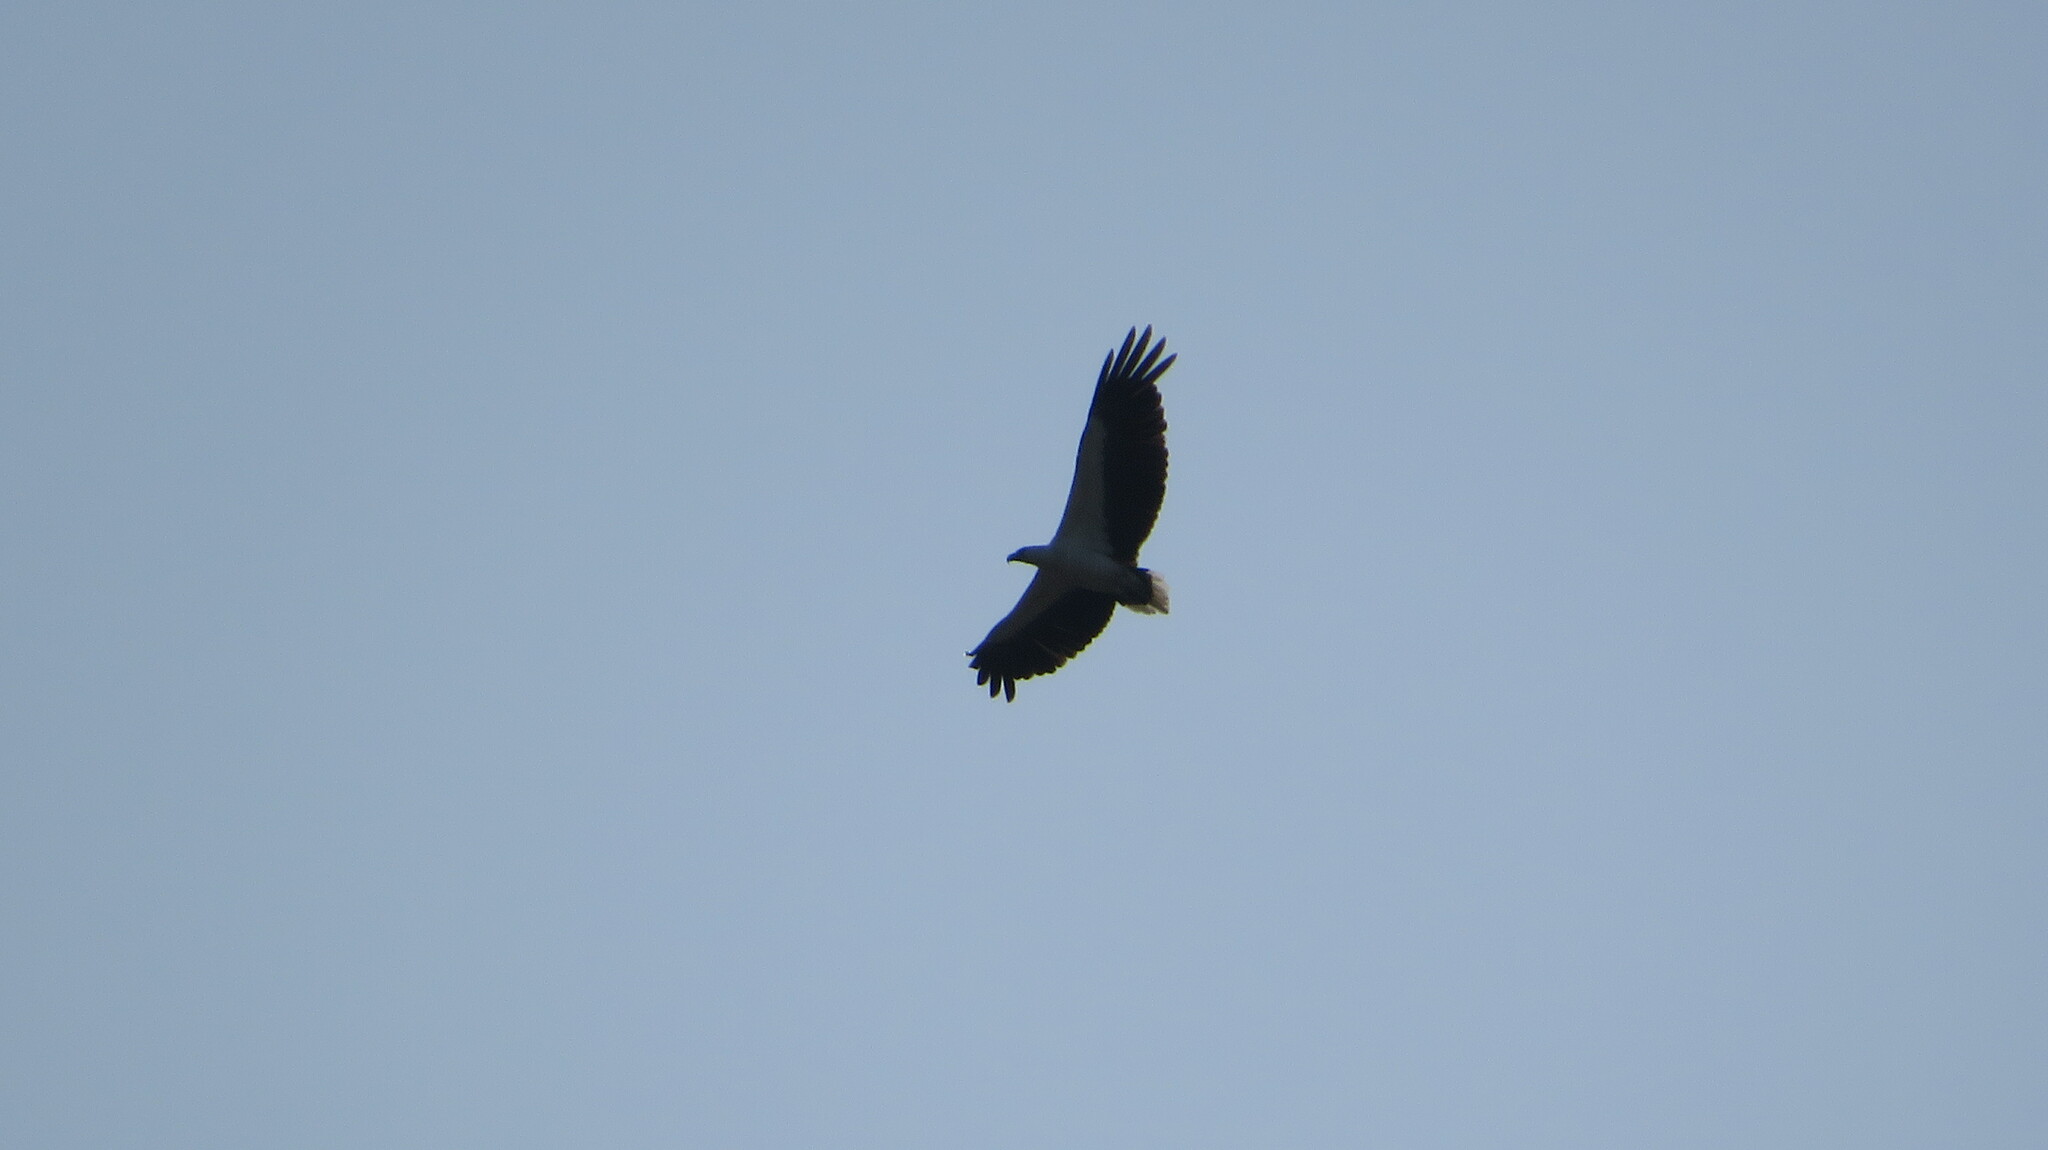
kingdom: Animalia
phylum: Chordata
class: Aves
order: Accipitriformes
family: Accipitridae
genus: Haliaeetus
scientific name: Haliaeetus leucogaster
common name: White-bellied sea eagle
